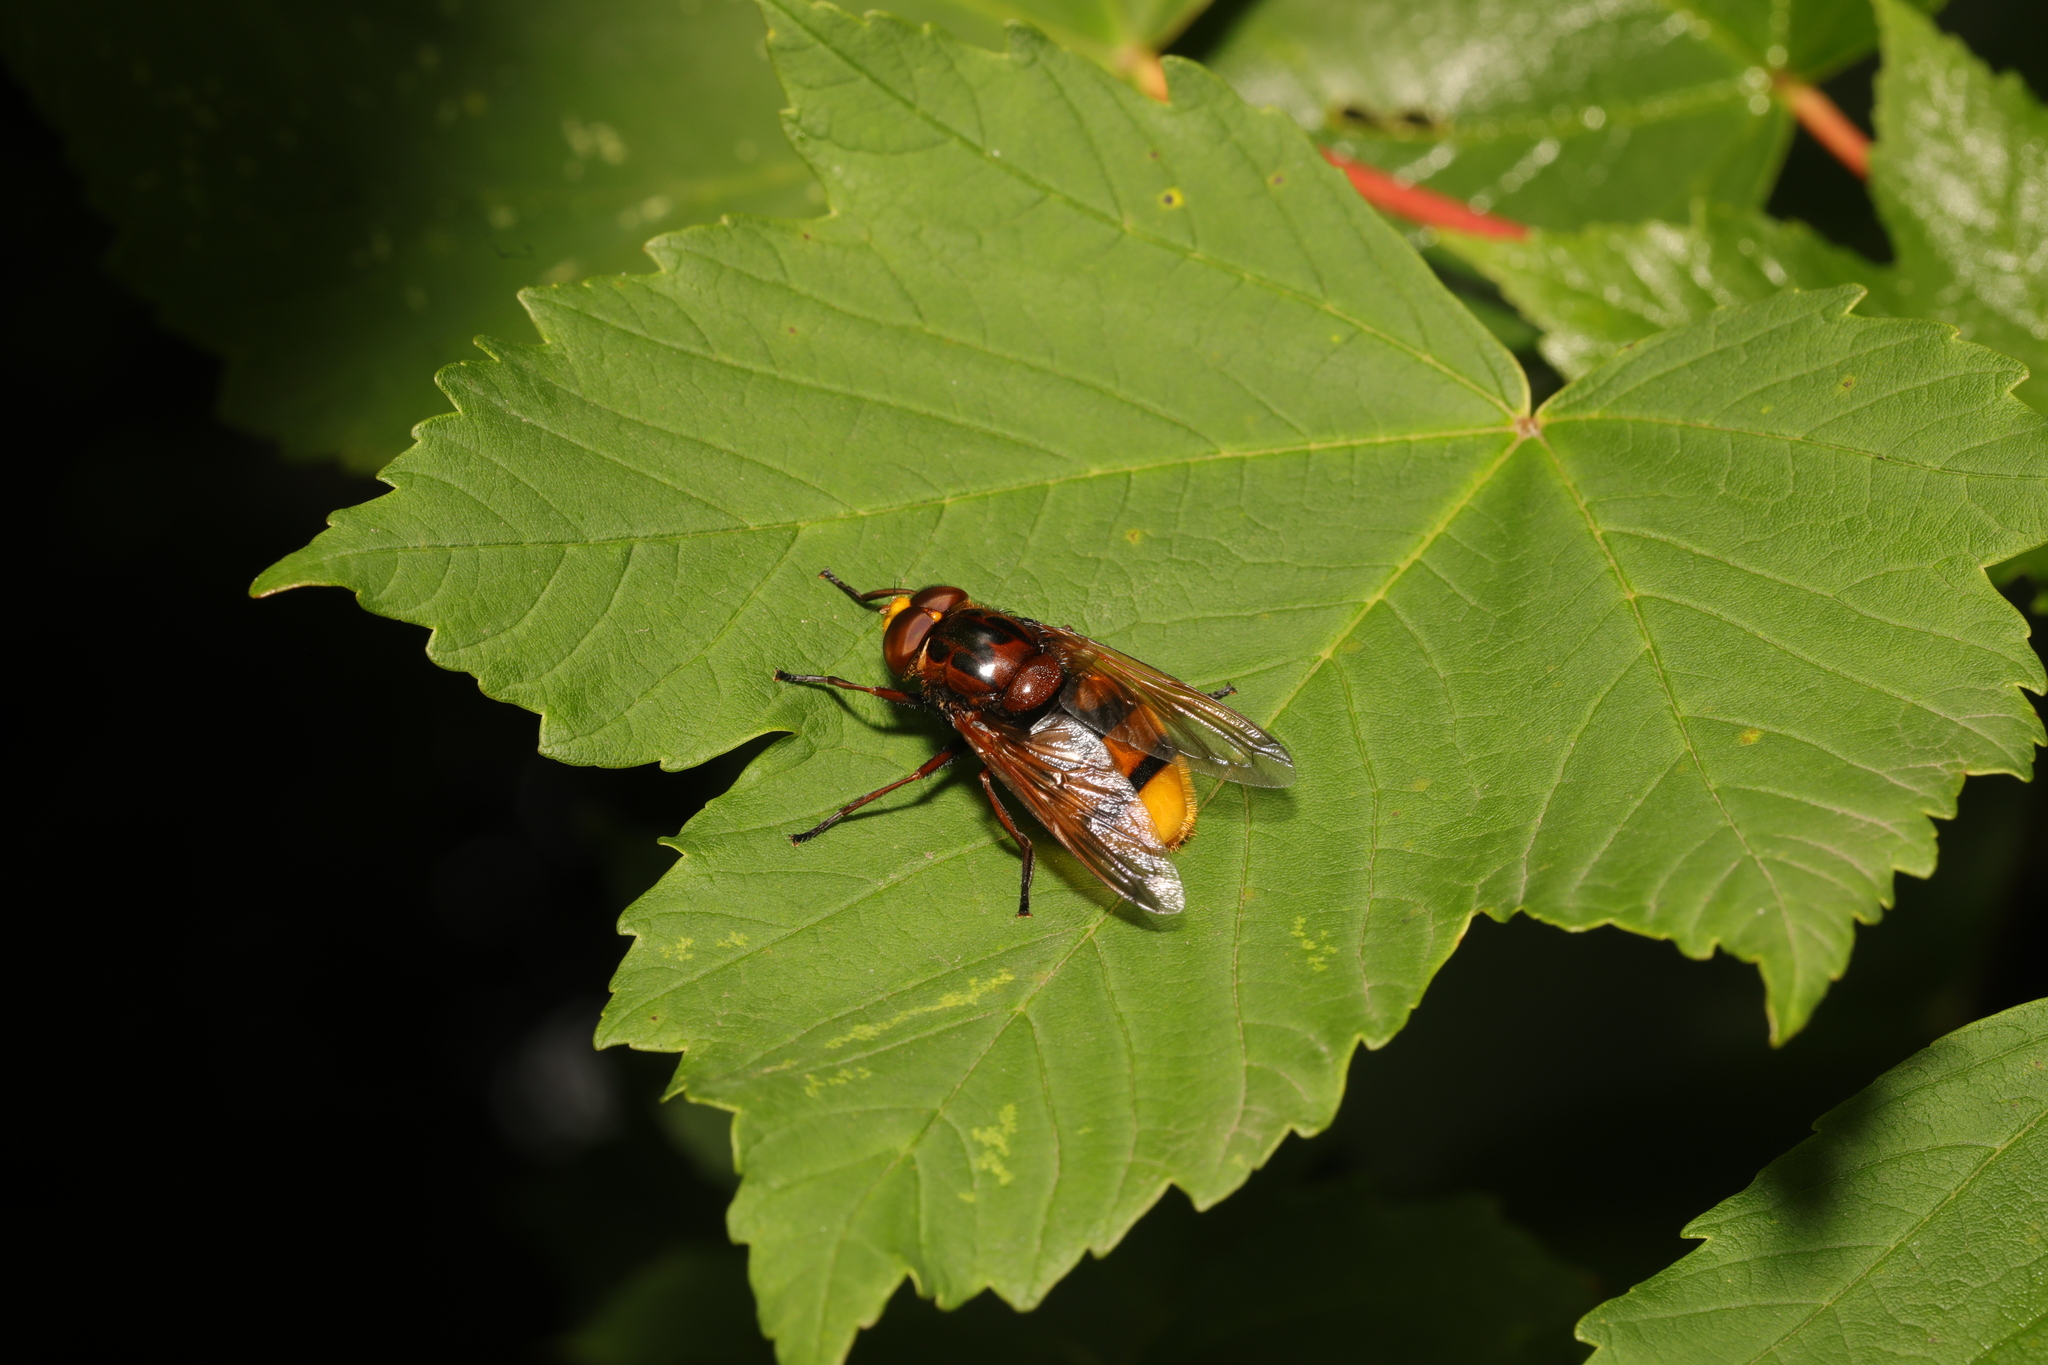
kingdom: Animalia
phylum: Arthropoda
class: Insecta
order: Diptera
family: Syrphidae
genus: Volucella
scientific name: Volucella zonaria
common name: Hornet hoverfly
